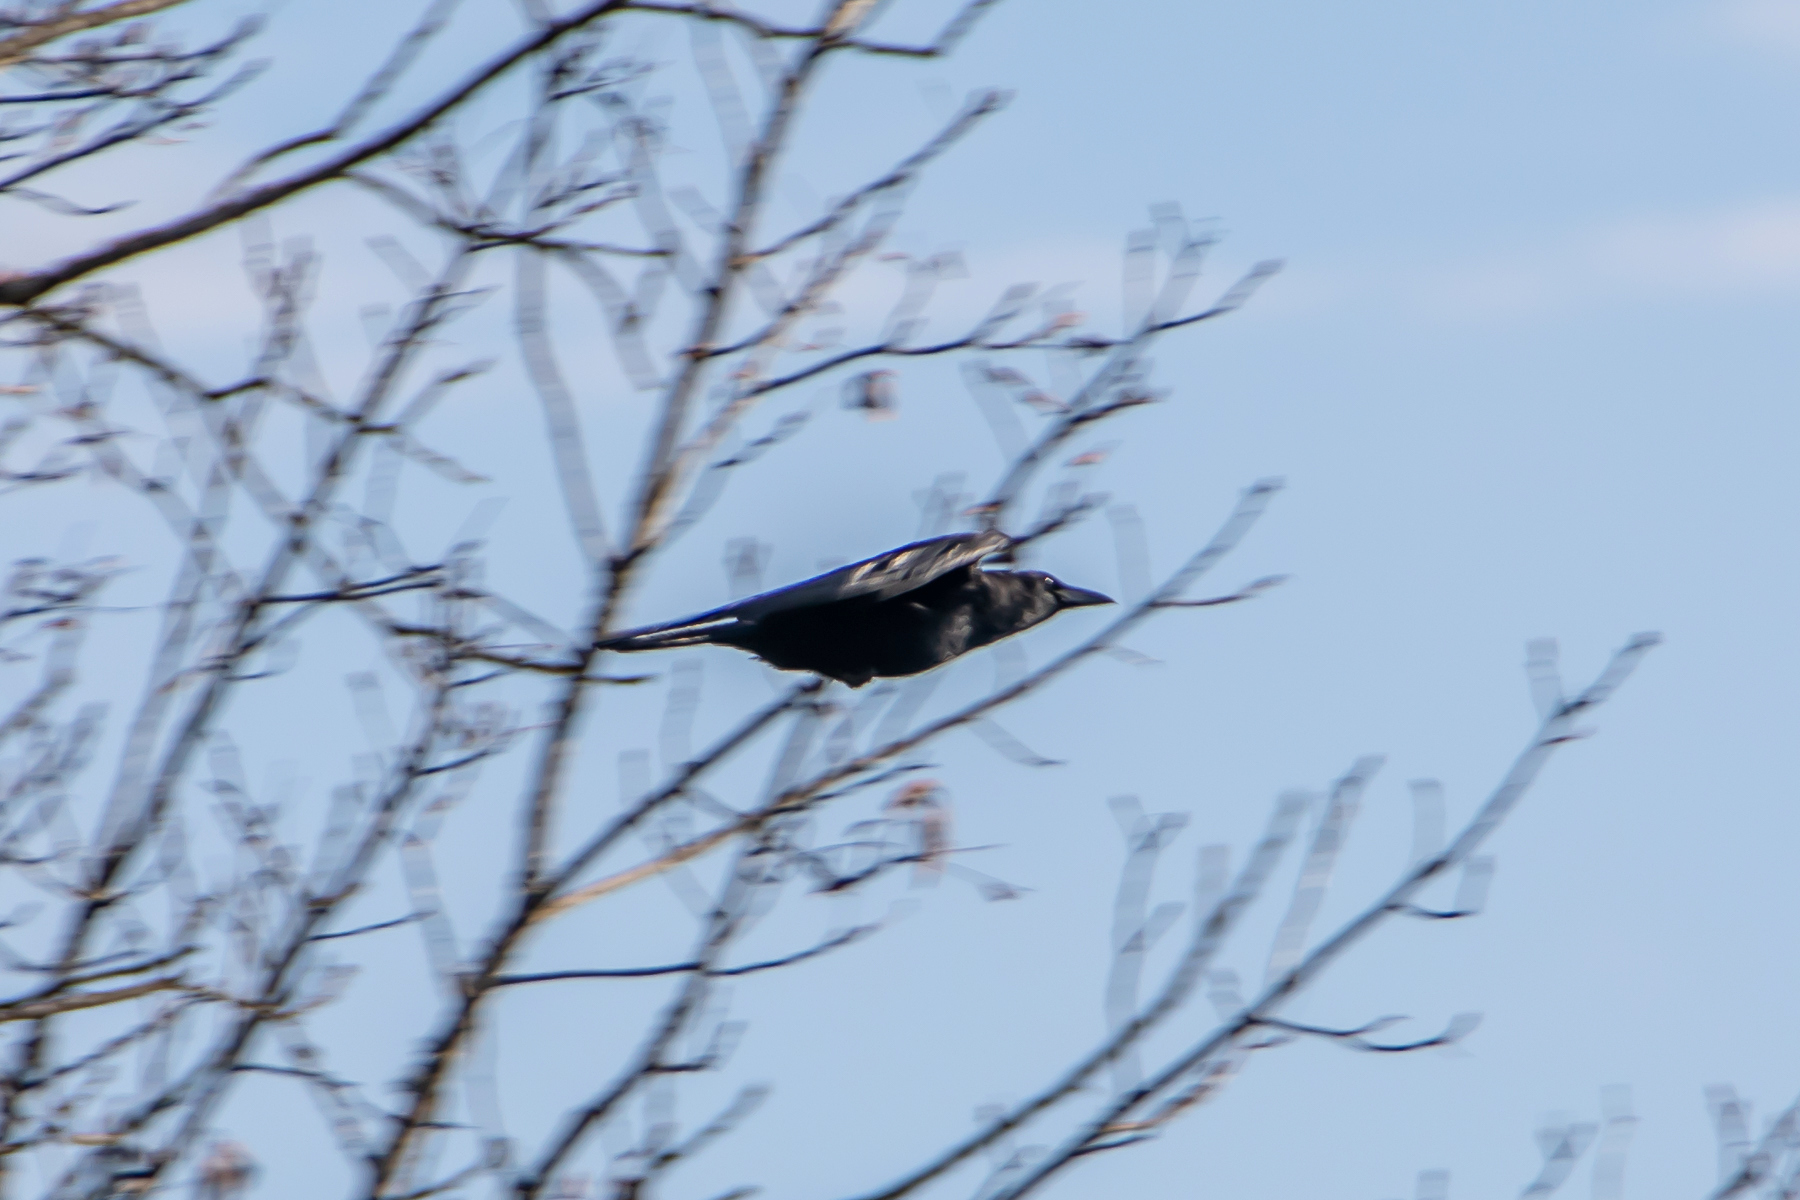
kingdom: Animalia
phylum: Chordata
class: Aves
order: Passeriformes
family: Corvidae
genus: Corvus
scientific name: Corvus brachyrhynchos
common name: American crow
